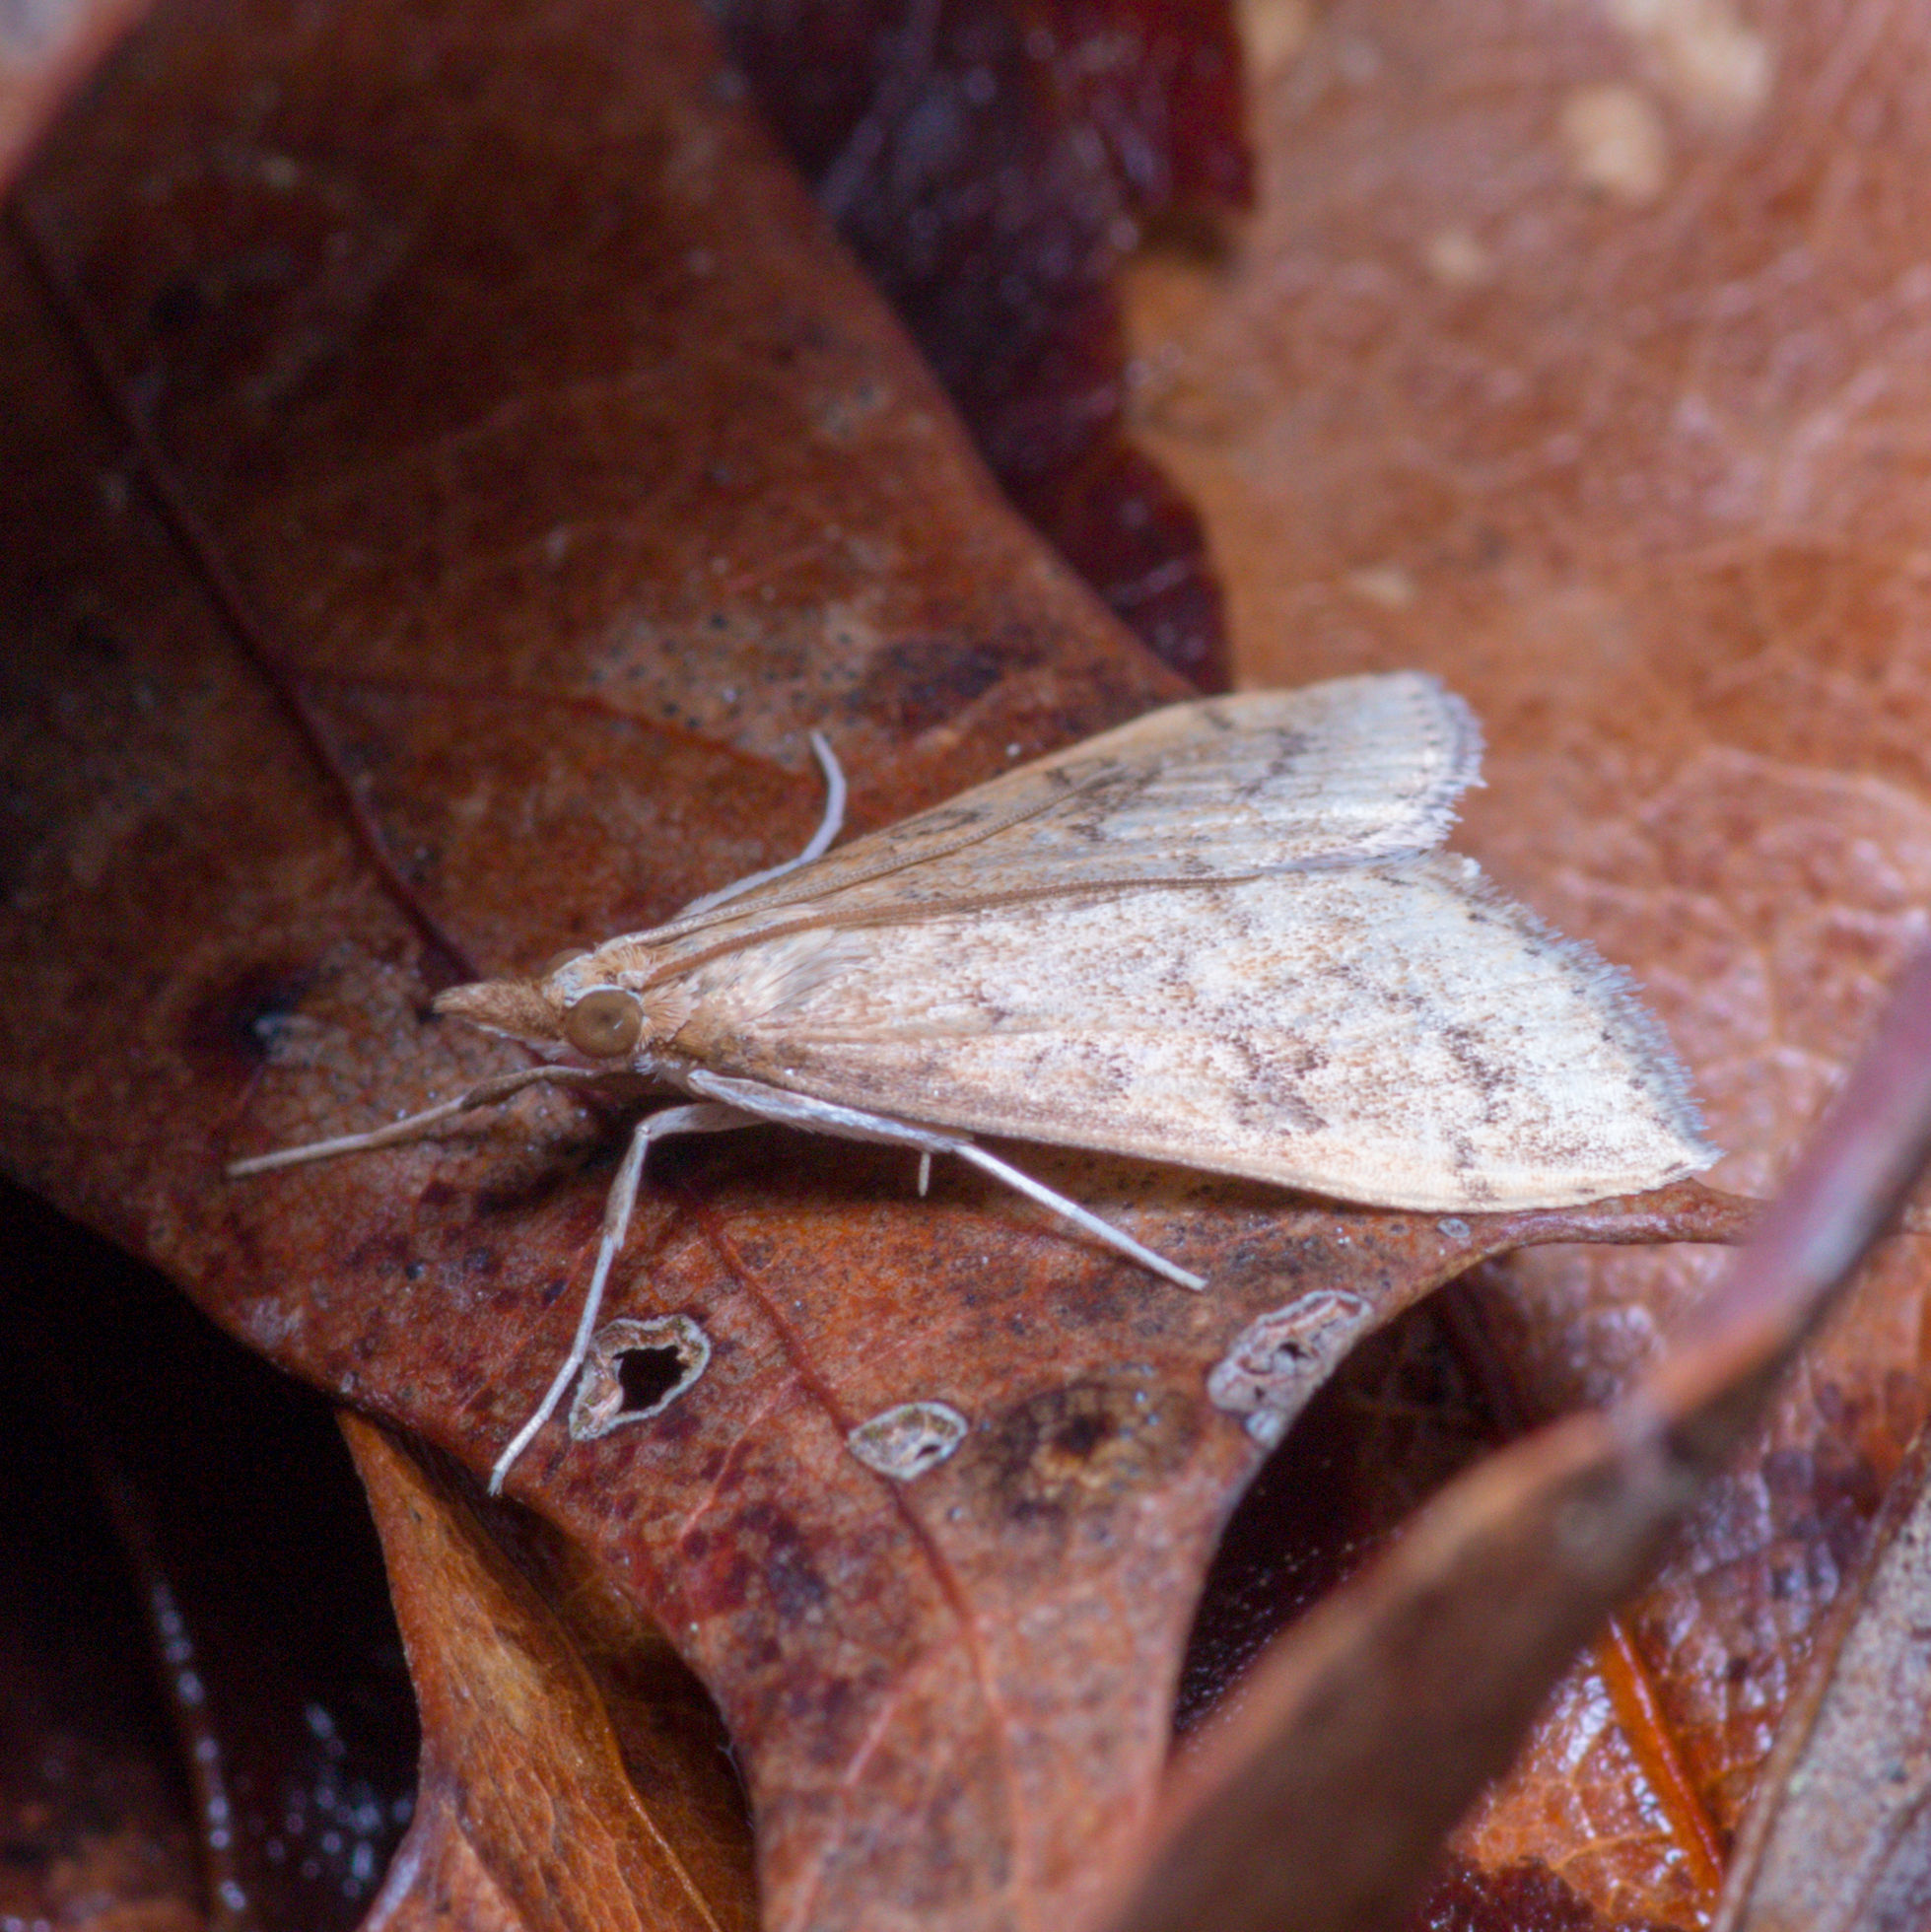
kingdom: Animalia
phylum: Arthropoda
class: Insecta
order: Lepidoptera
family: Crambidae
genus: Udea
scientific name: Udea rubigalis
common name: Celery leaftier moth
